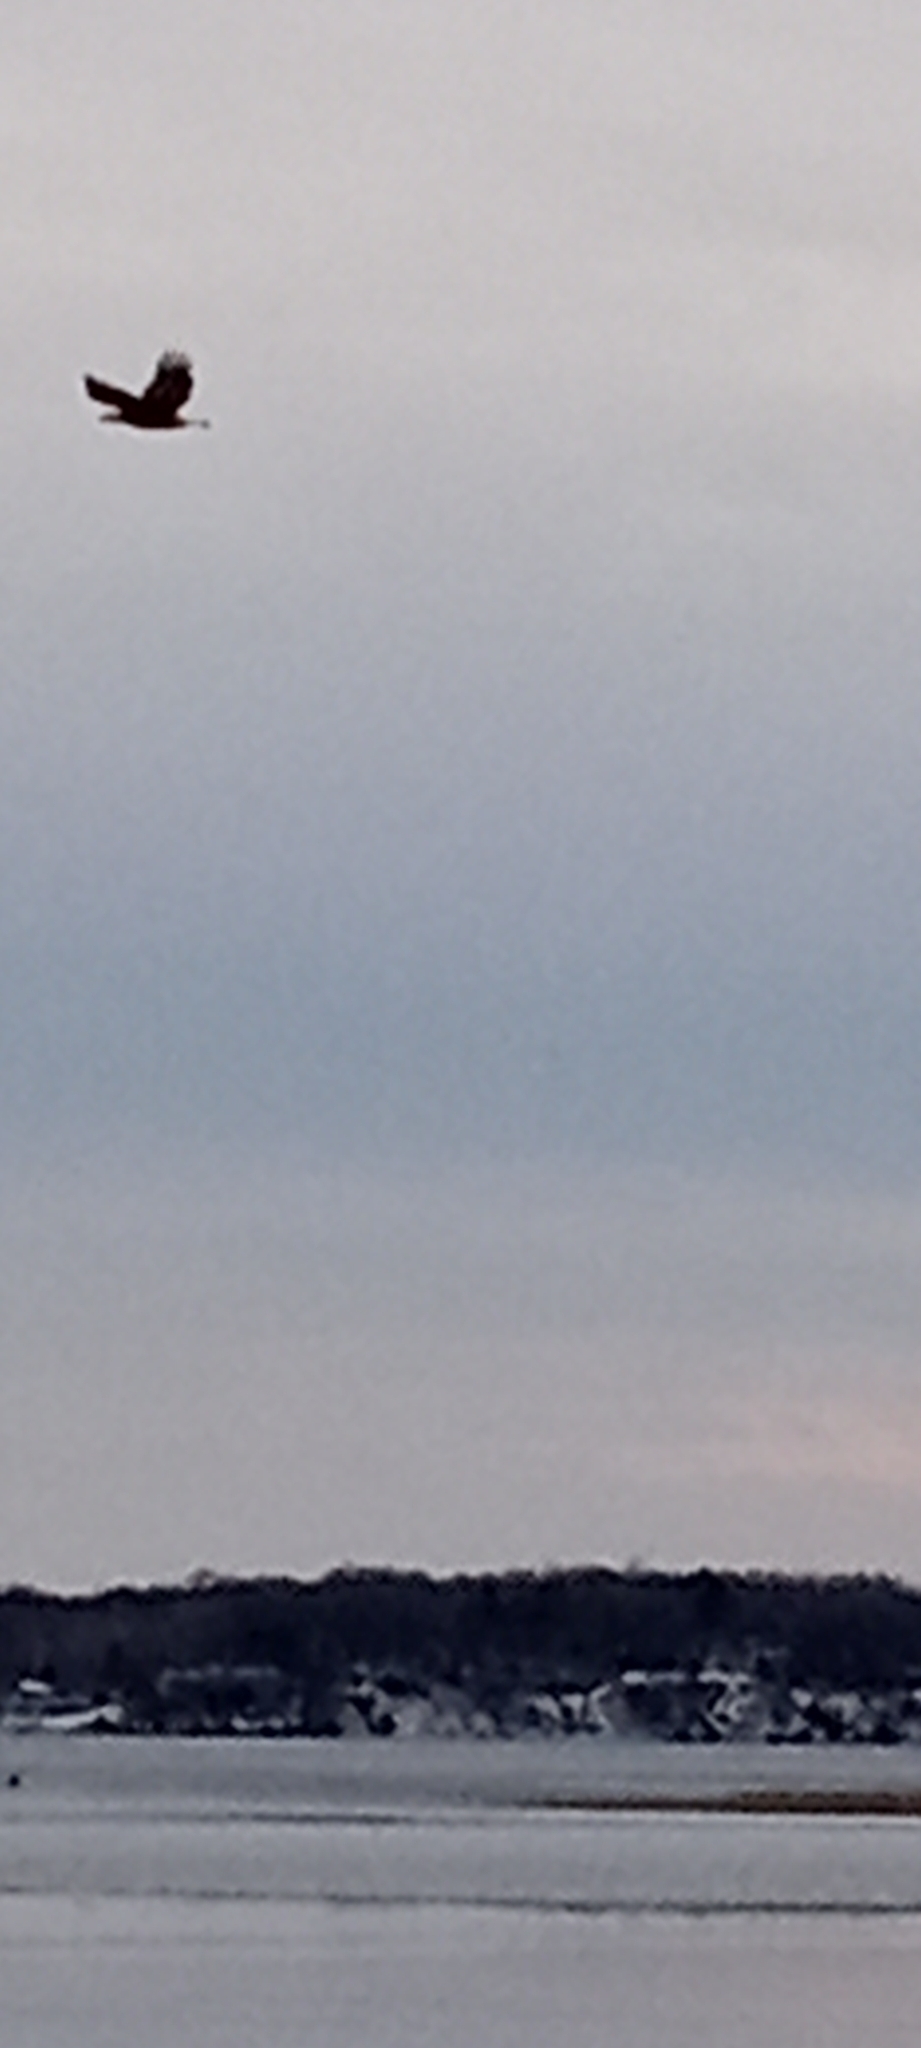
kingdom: Animalia
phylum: Chordata
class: Aves
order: Accipitriformes
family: Accipitridae
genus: Haliaeetus
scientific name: Haliaeetus leucocephalus
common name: Bald eagle
